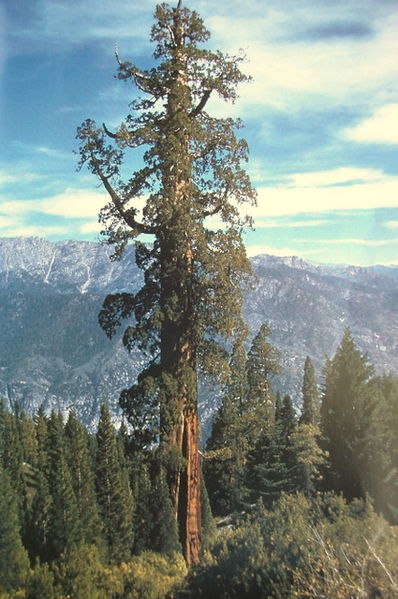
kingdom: Plantae
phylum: Tracheophyta
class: Pinopsida
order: Pinales
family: Cupressaceae
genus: Sequoiadendron
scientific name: Sequoiadendron giganteum
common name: Wellingtonia
